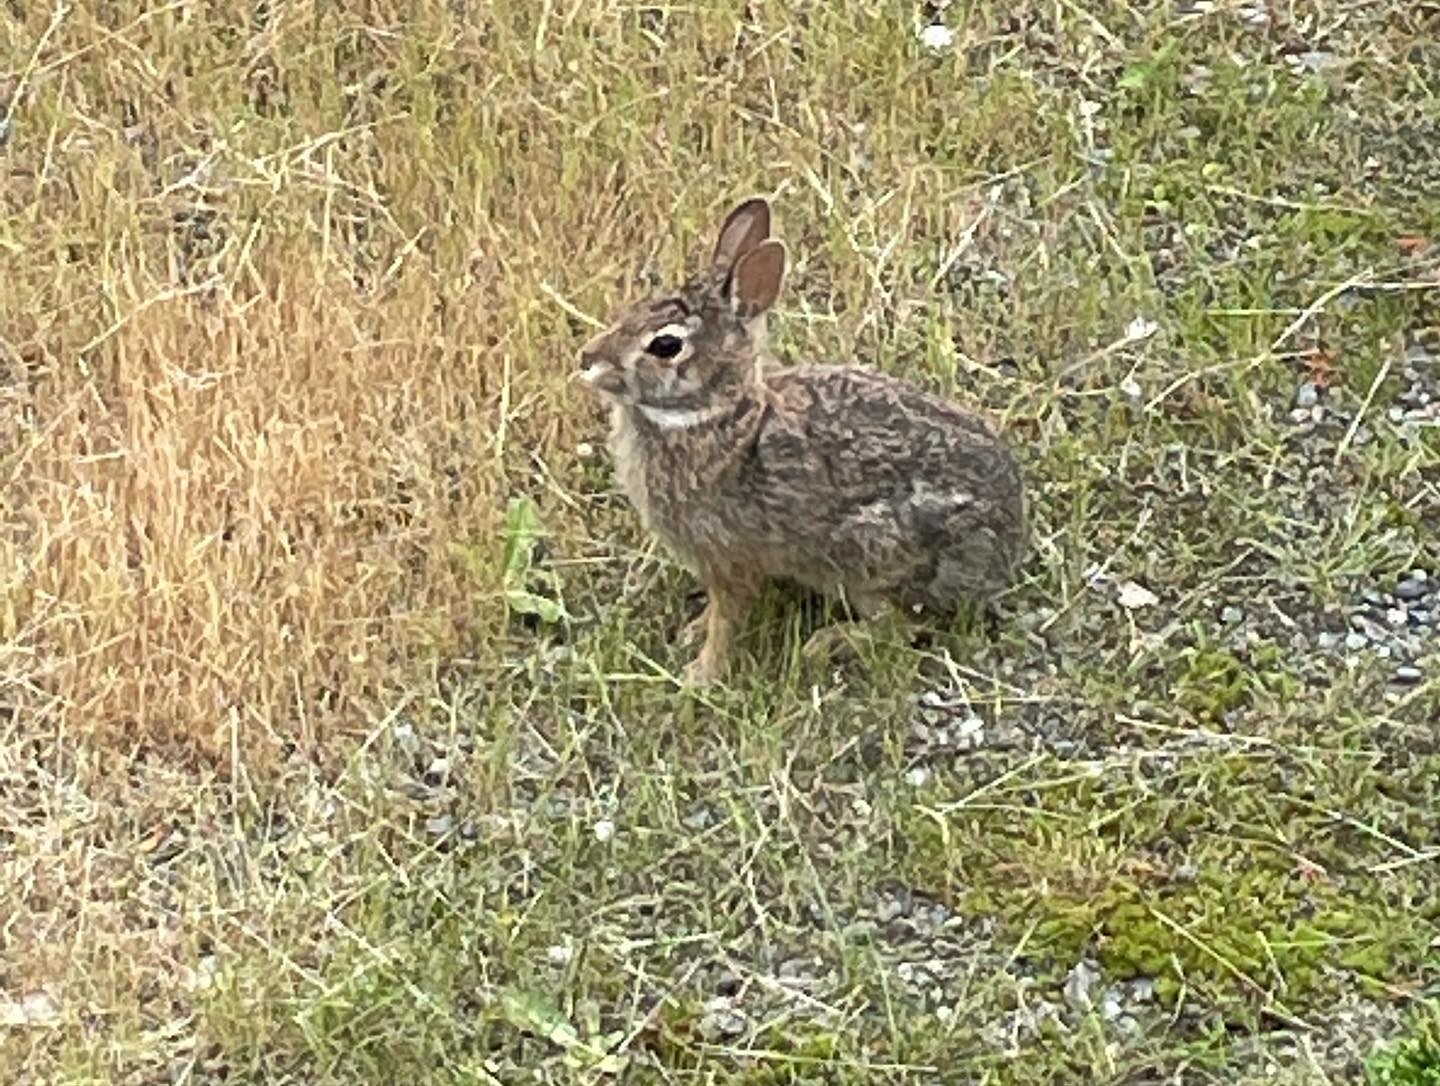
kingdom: Animalia
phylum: Chordata
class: Mammalia
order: Lagomorpha
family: Leporidae
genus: Sylvilagus
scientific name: Sylvilagus floridanus
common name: Eastern cottontail
